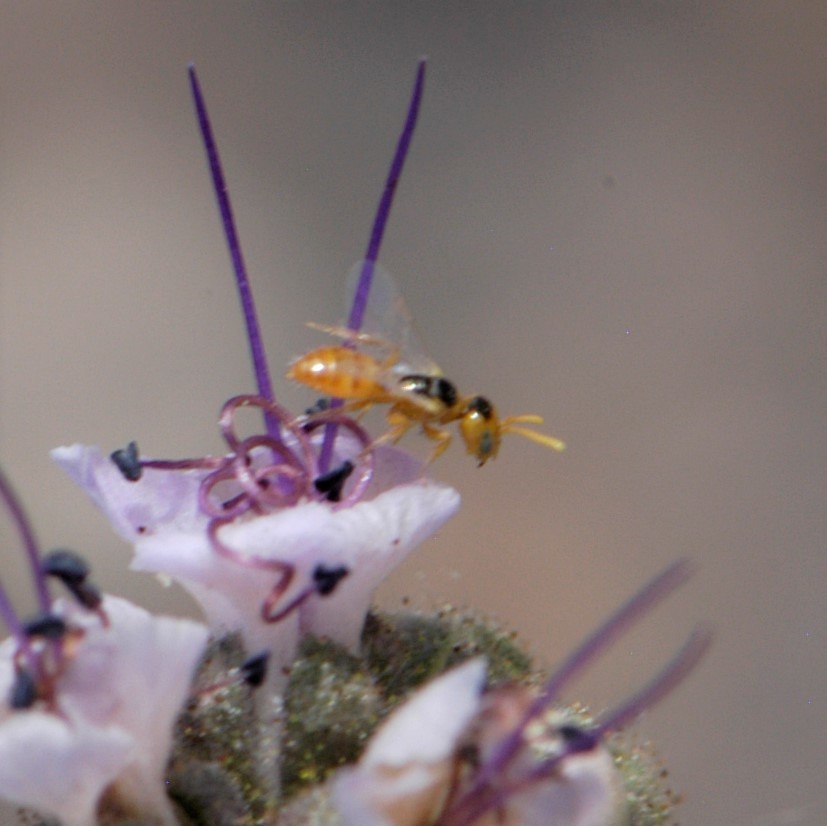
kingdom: Animalia
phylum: Arthropoda
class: Insecta
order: Hymenoptera
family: Andrenidae
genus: Perdita
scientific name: Perdita marcialis
